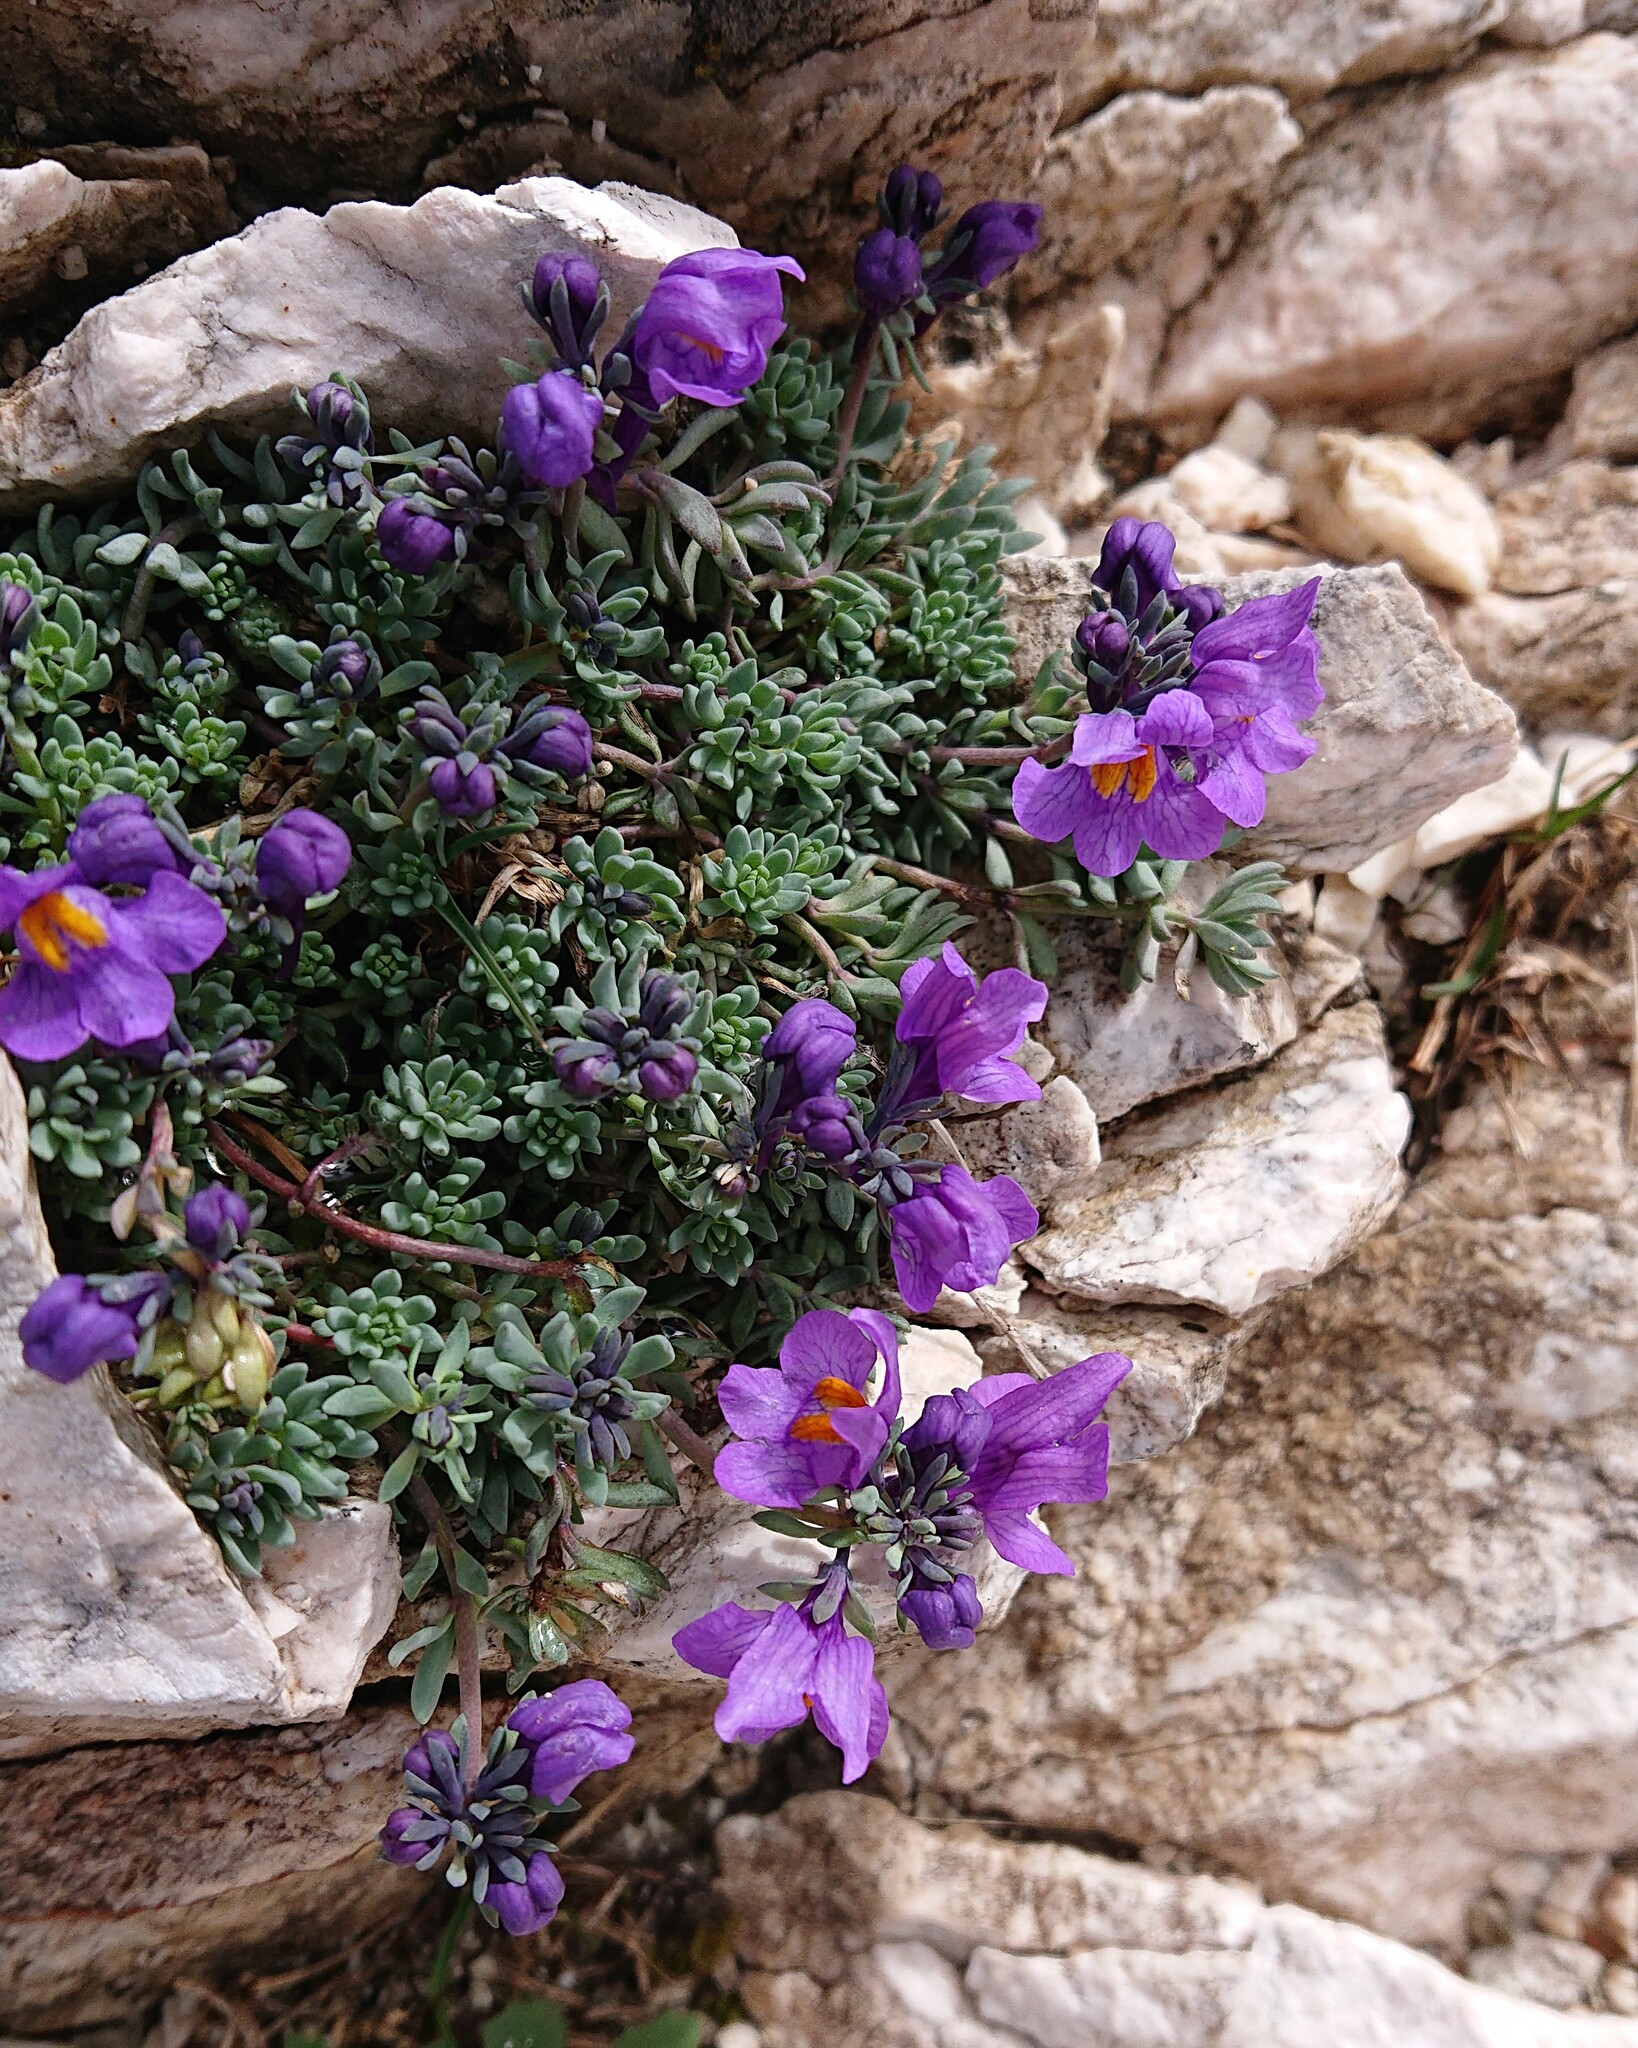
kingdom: Plantae
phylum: Tracheophyta
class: Magnoliopsida
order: Lamiales
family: Plantaginaceae
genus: Linaria
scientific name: Linaria alpina
